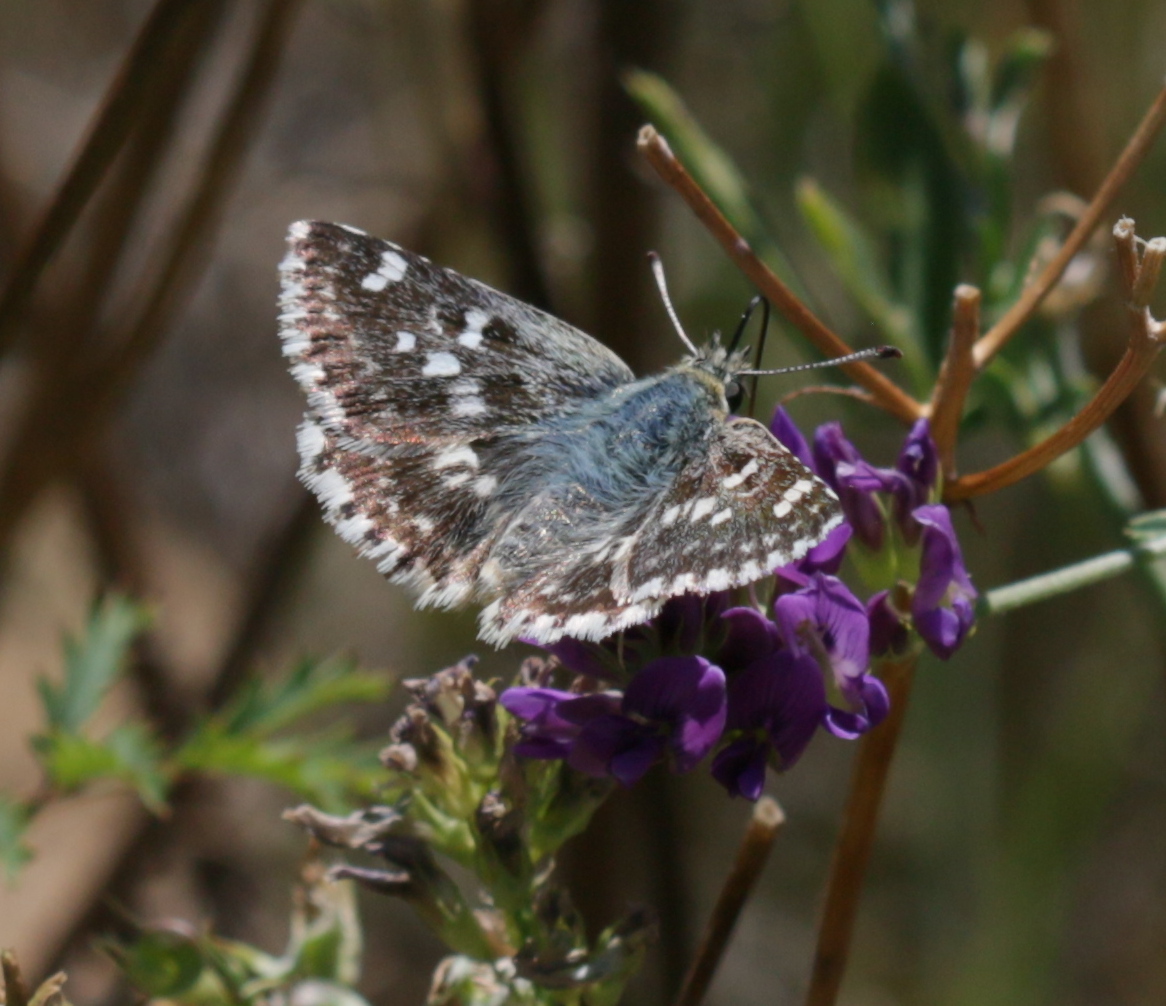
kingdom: Animalia
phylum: Arthropoda
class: Insecta
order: Lepidoptera
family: Hesperiidae
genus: Syrichtus
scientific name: Syrichtus Muschampia proto
